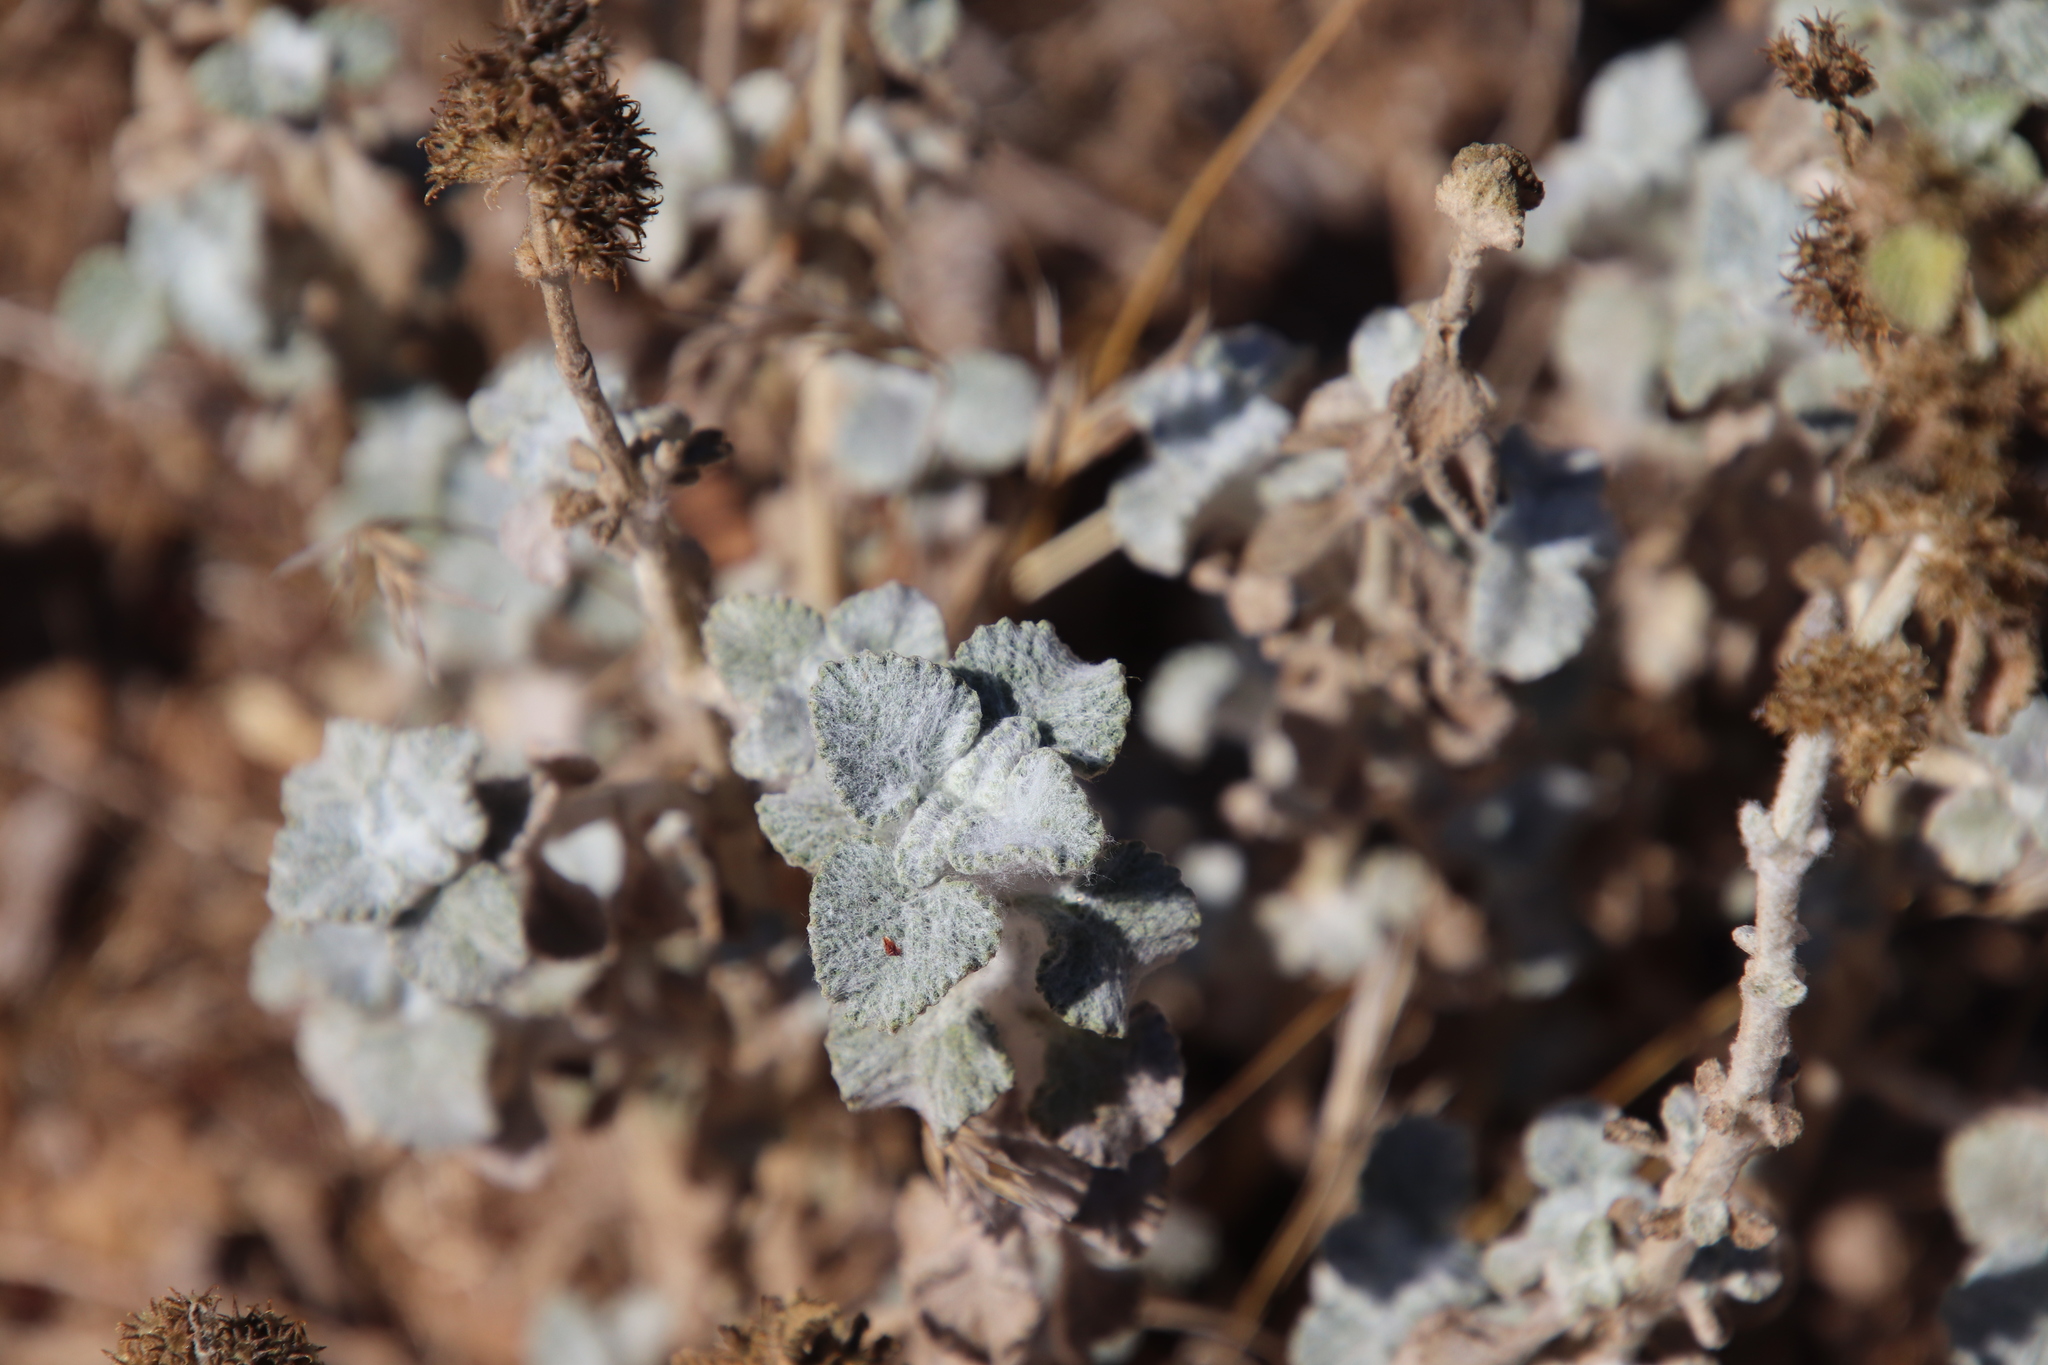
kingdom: Plantae
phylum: Tracheophyta
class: Magnoliopsida
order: Lamiales
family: Lamiaceae
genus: Marrubium
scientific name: Marrubium vulgare
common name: Horehound
